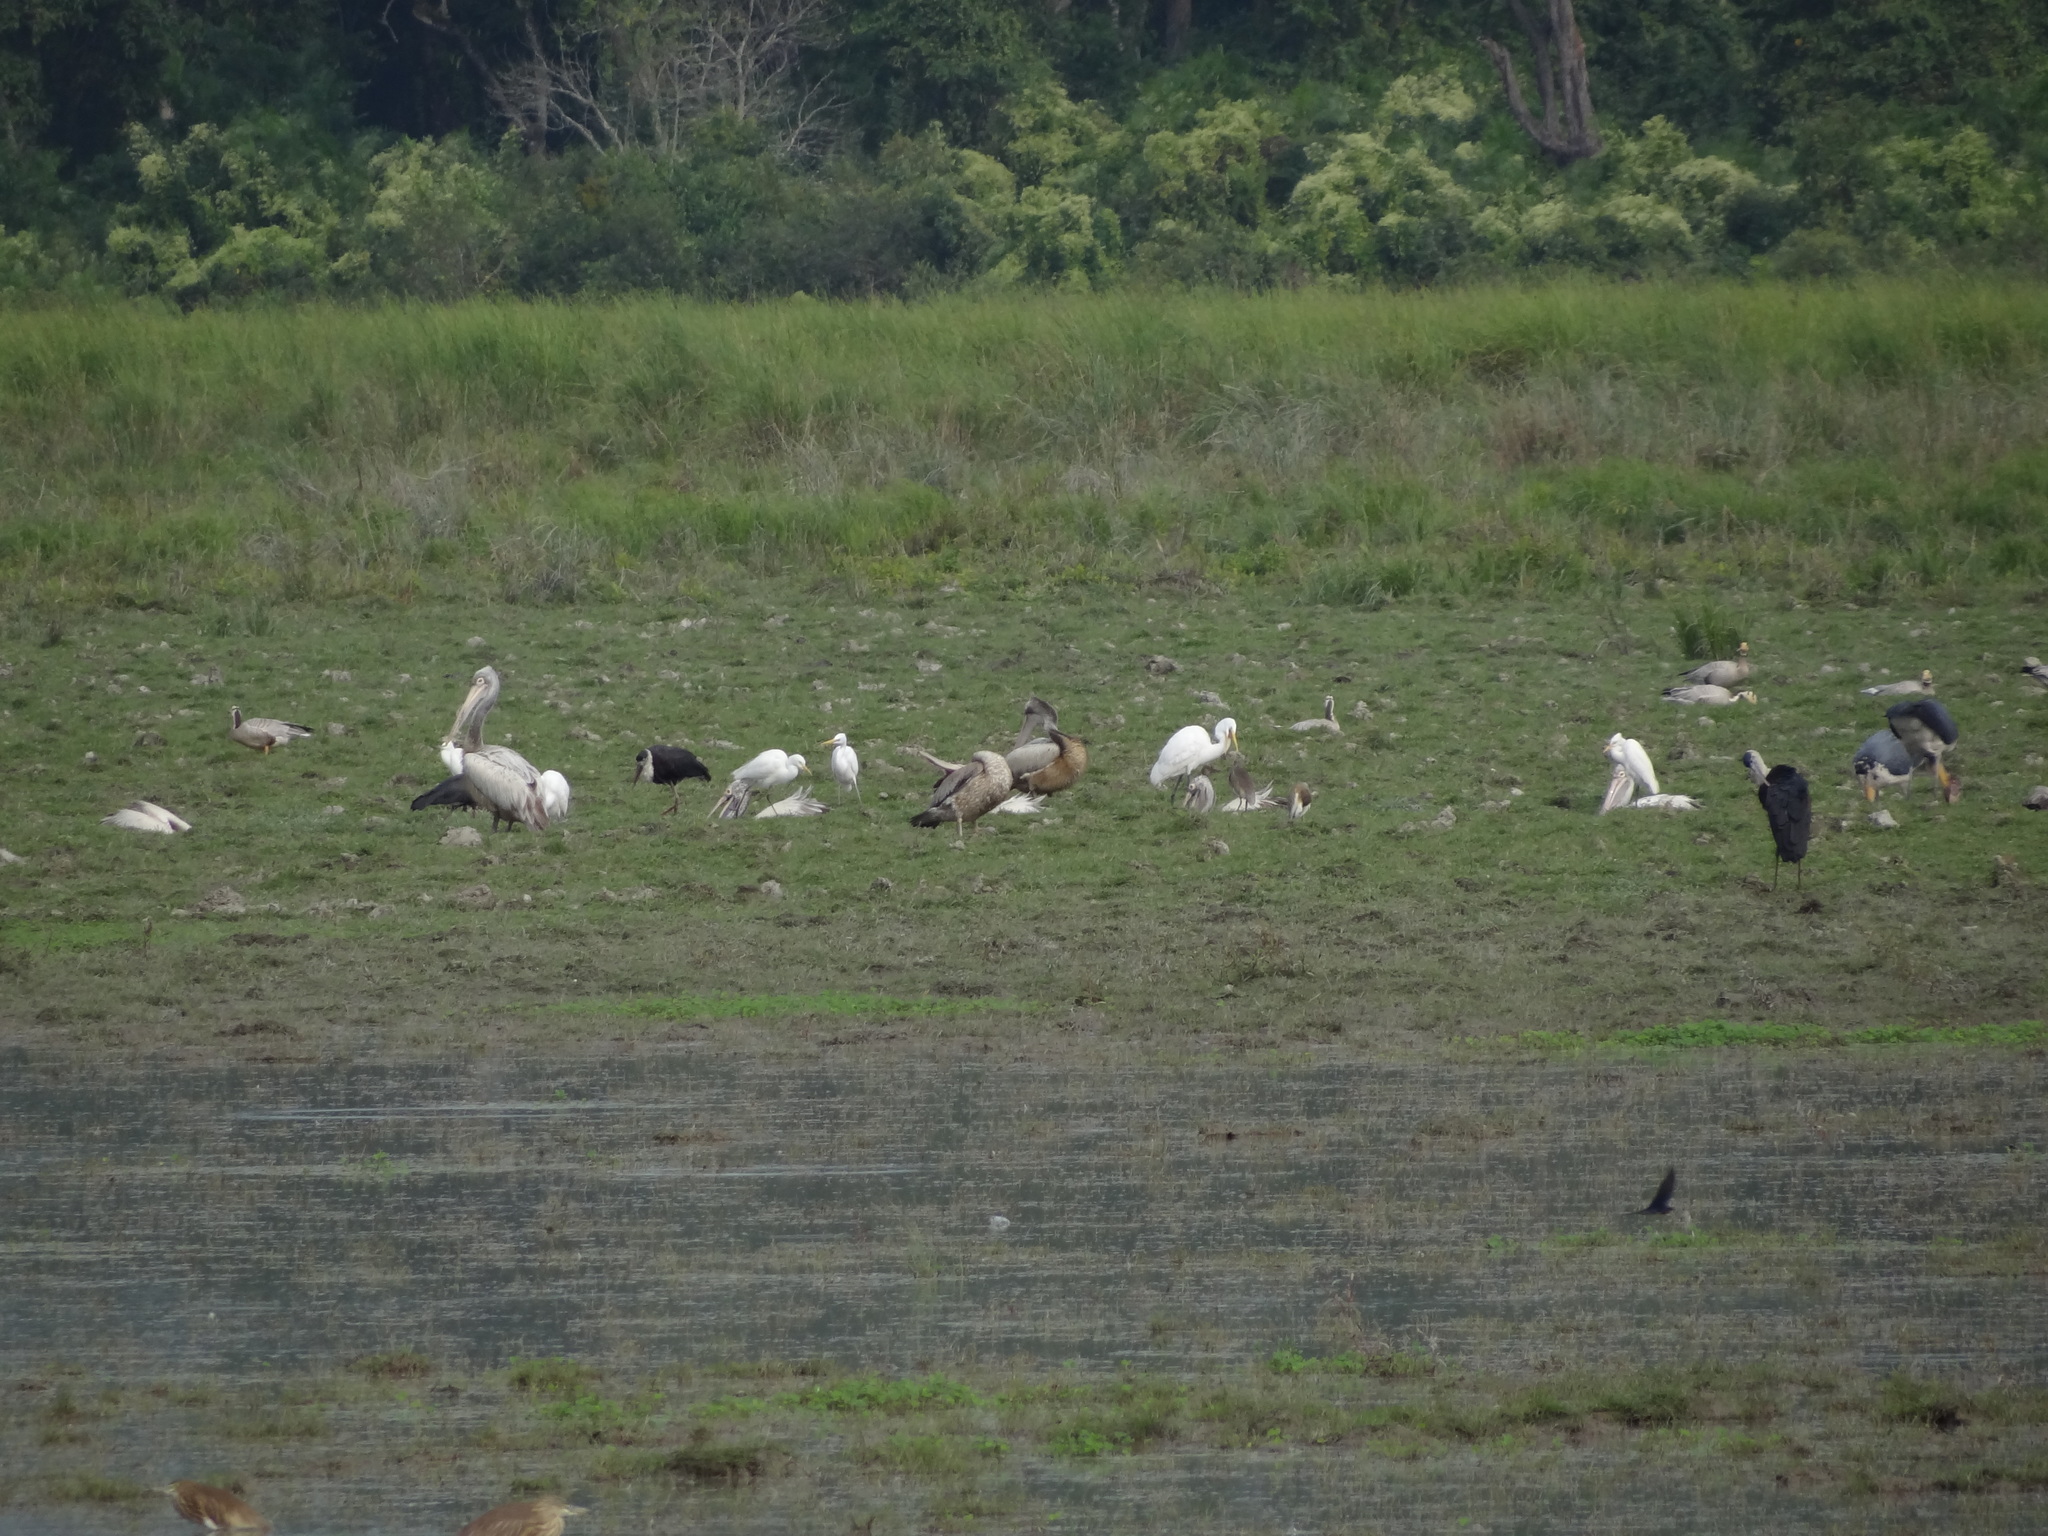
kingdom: Animalia
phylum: Chordata
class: Aves
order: Pelecaniformes
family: Pelecanidae
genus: Pelecanus
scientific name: Pelecanus philippensis
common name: Spot-billed pelican
